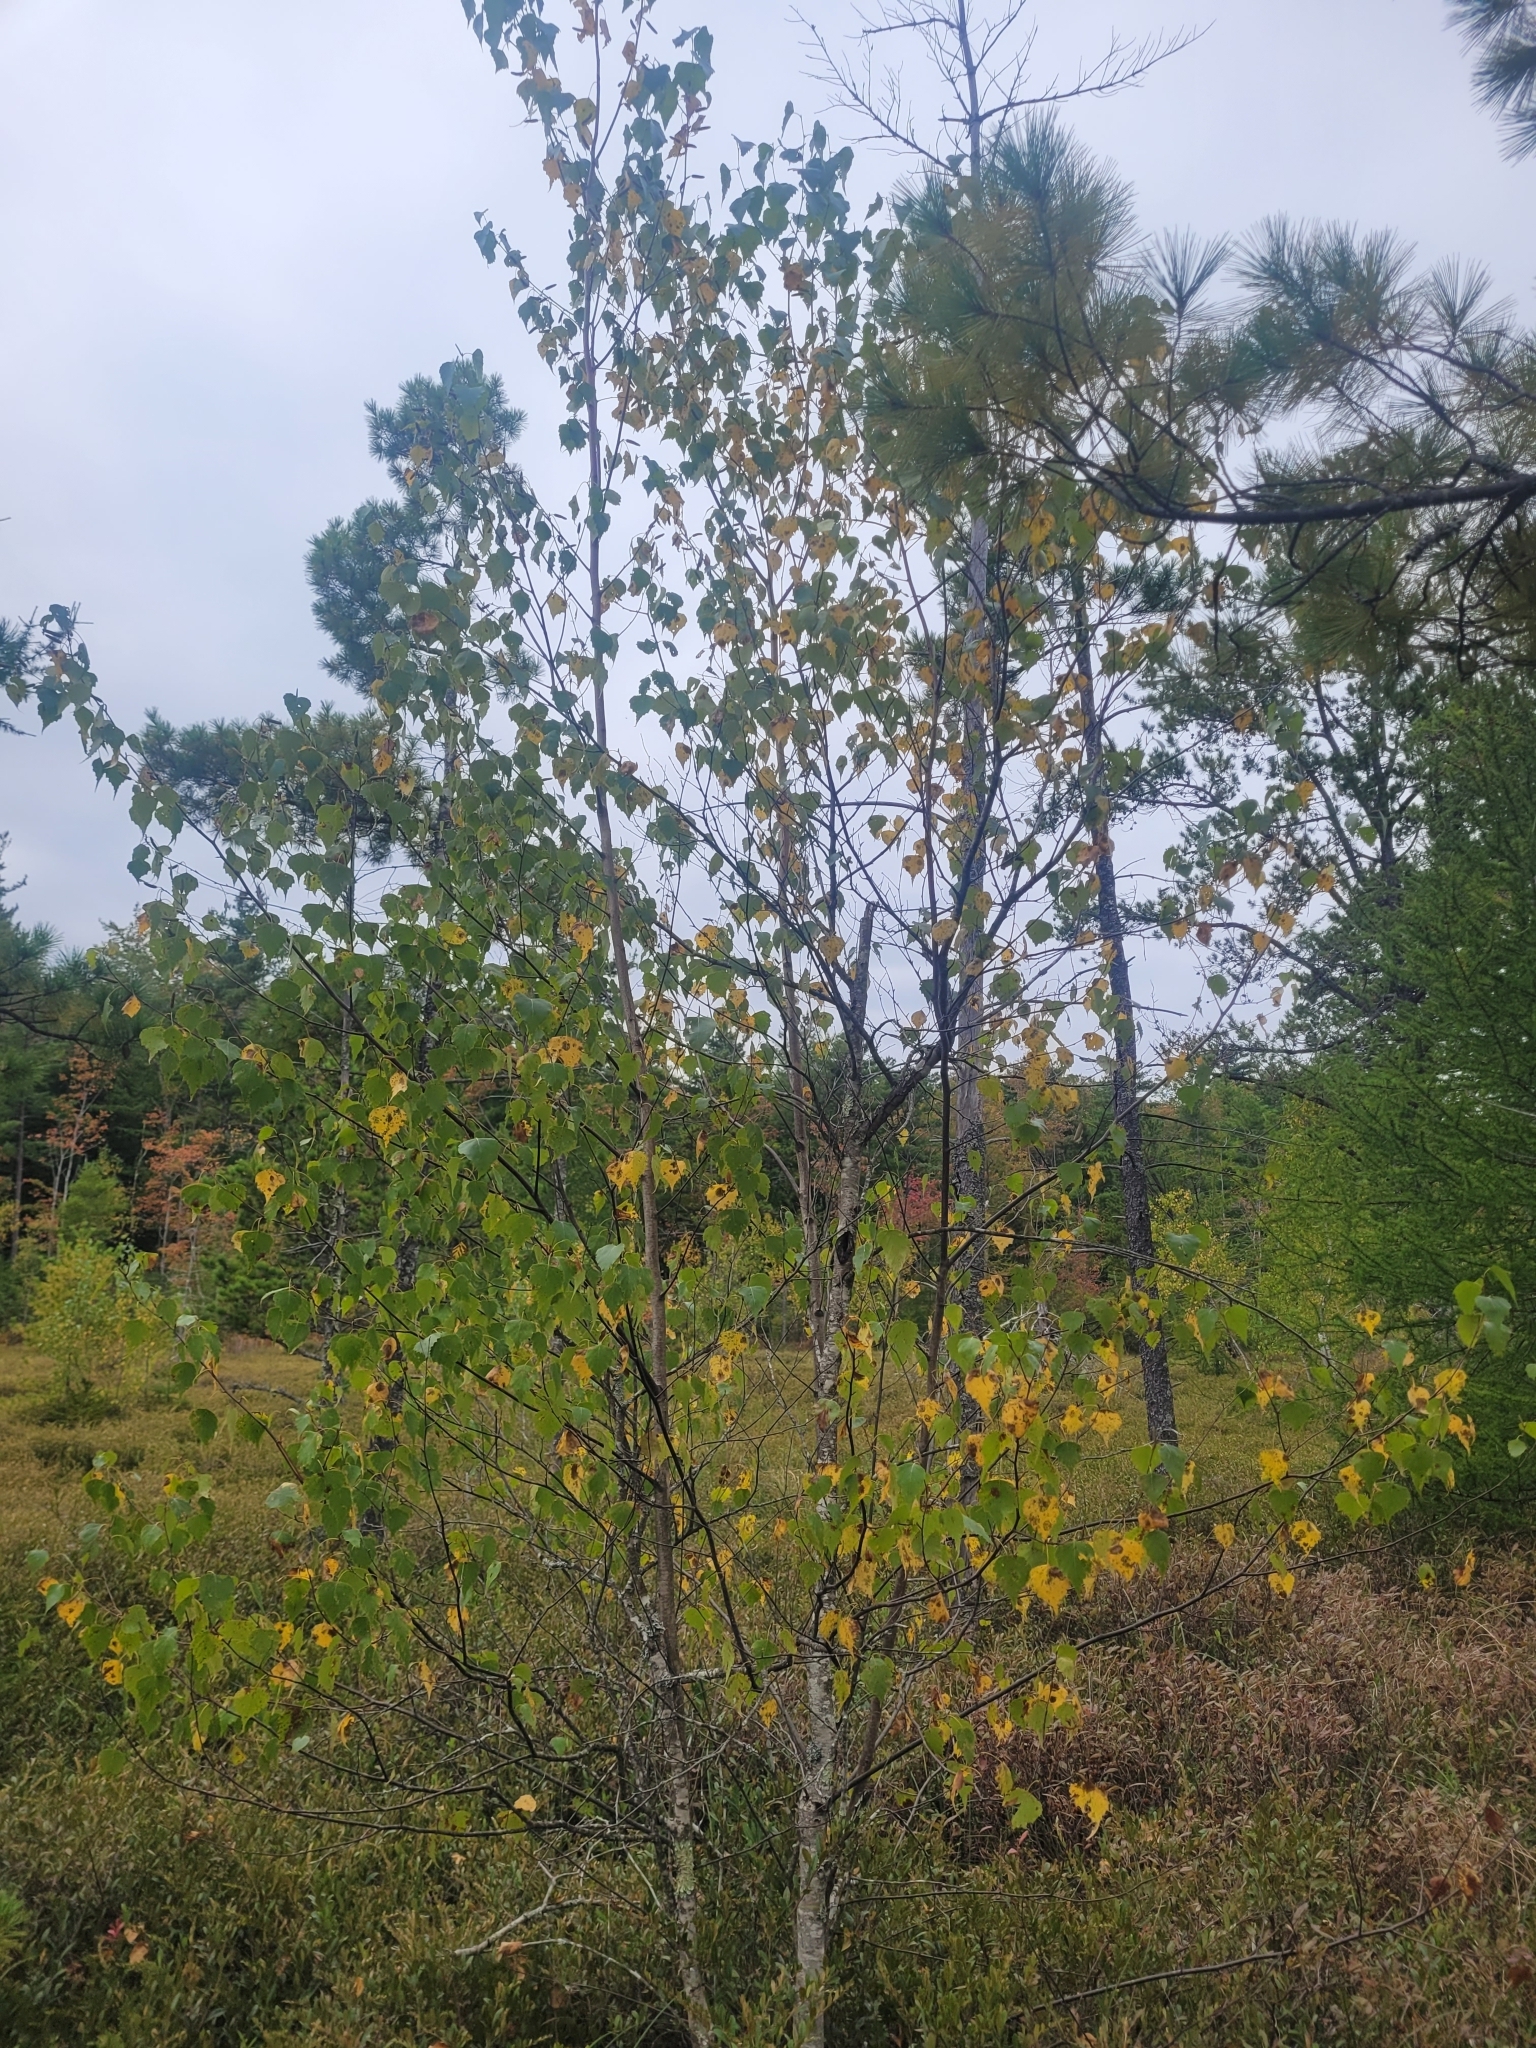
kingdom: Plantae
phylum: Tracheophyta
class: Magnoliopsida
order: Fagales
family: Betulaceae
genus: Betula
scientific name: Betula populifolia
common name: Fire birch
